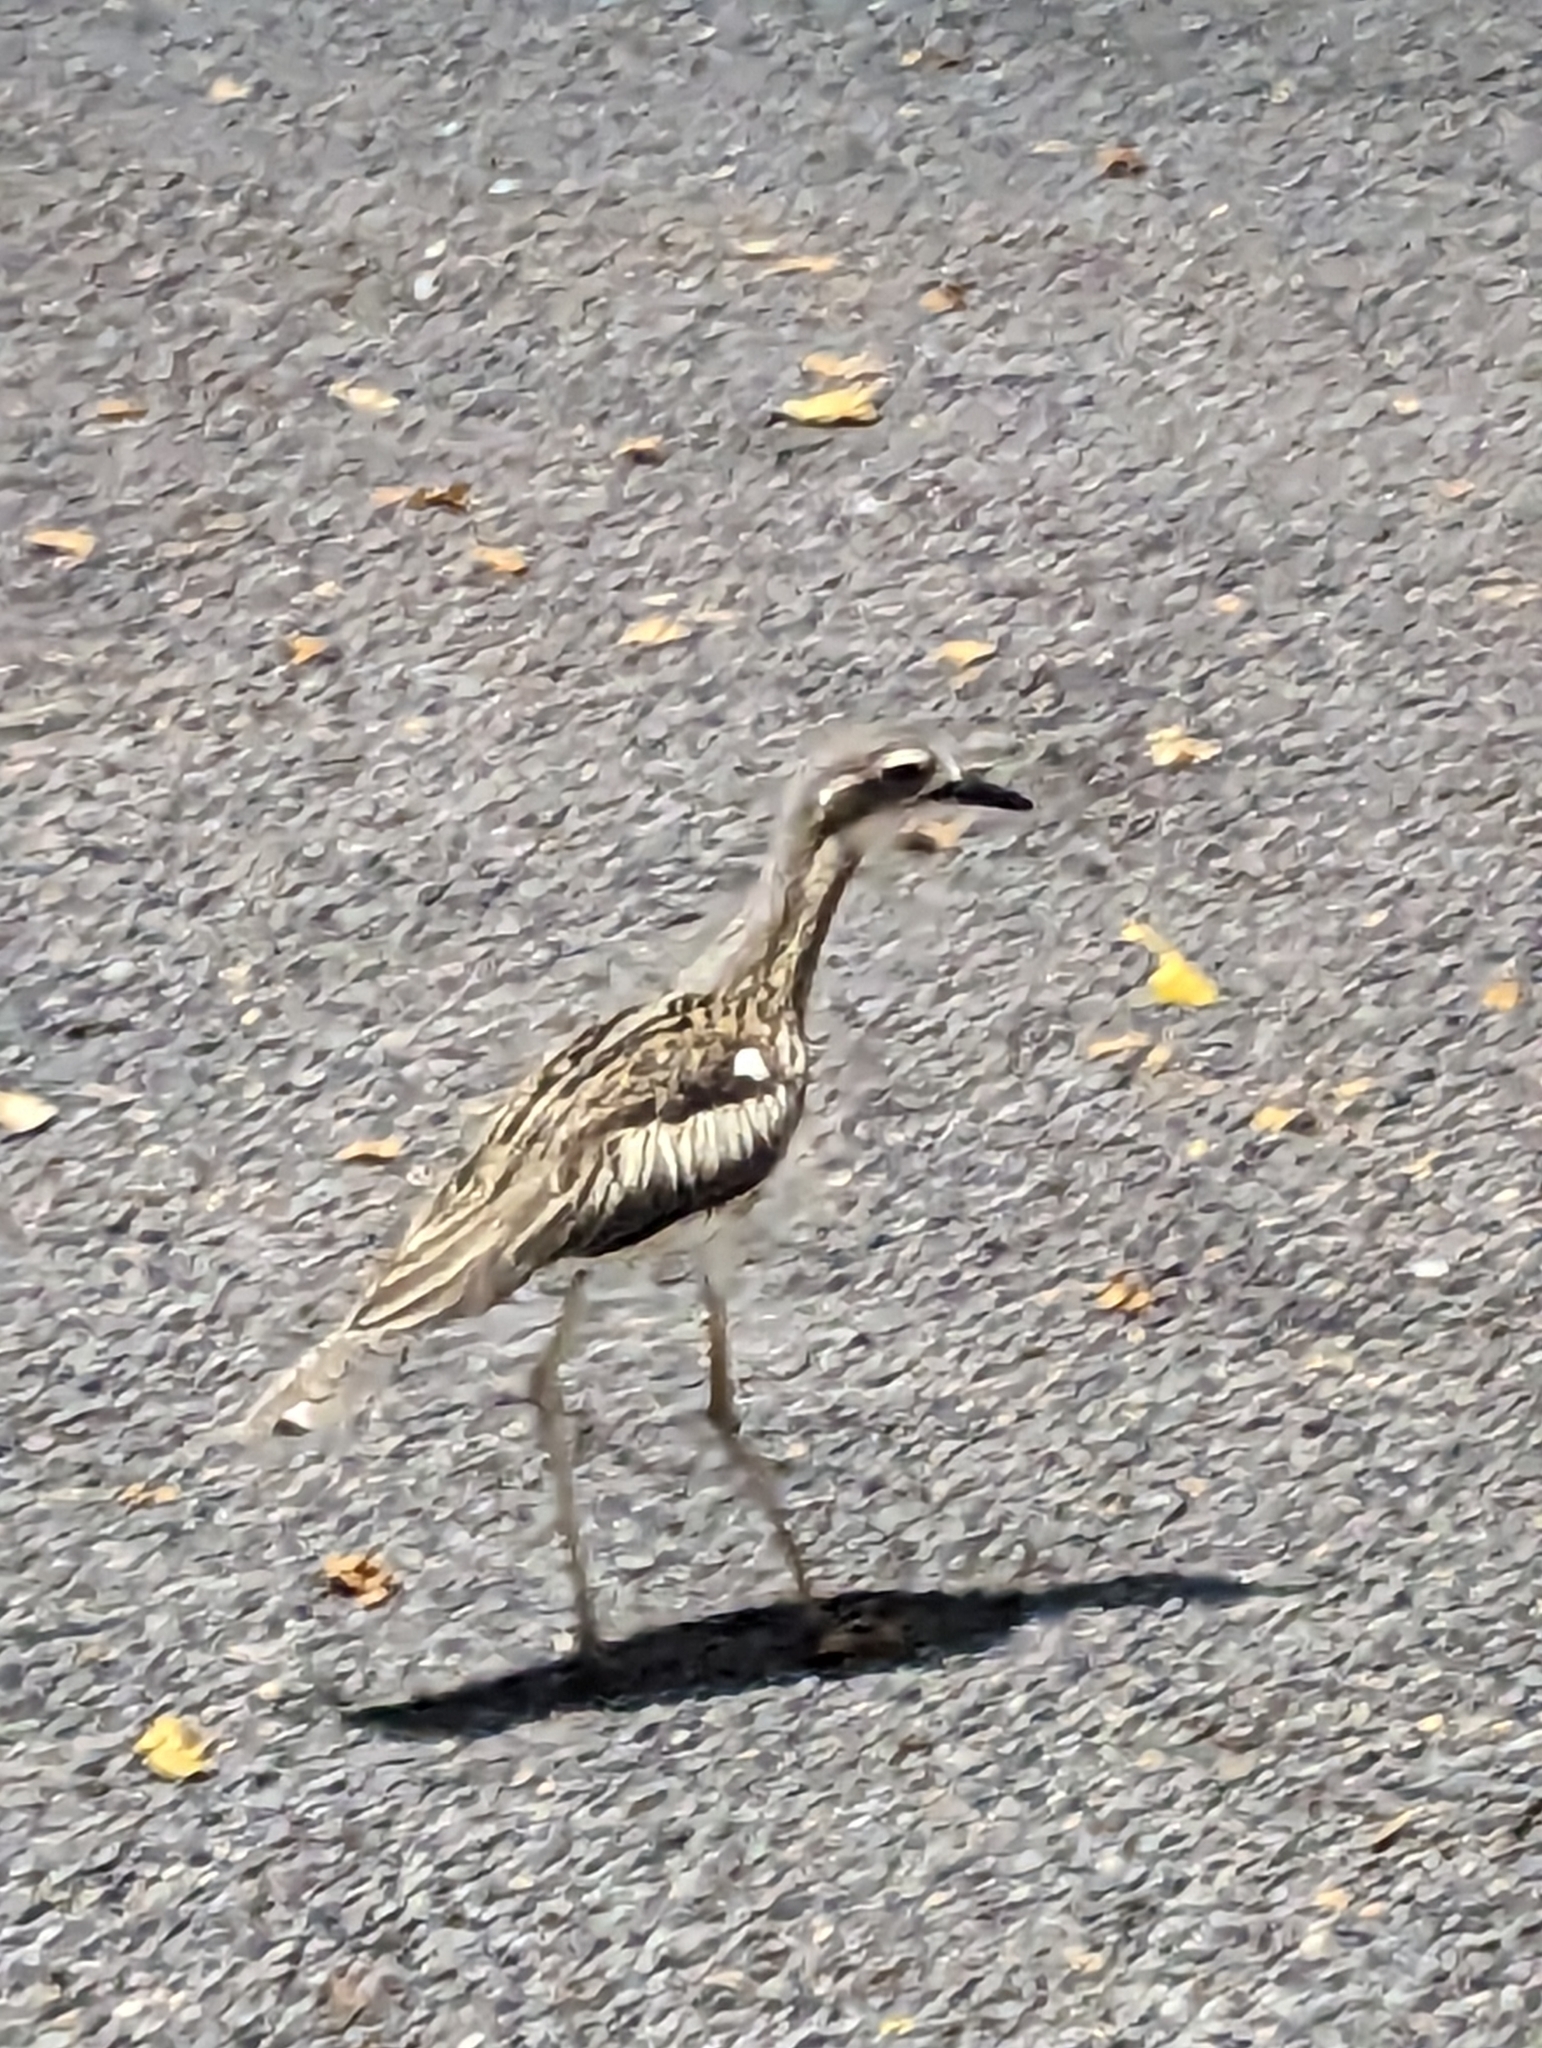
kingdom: Animalia
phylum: Chordata
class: Aves
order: Charadriiformes
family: Burhinidae
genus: Burhinus
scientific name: Burhinus grallarius
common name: Bush stone-curlew
